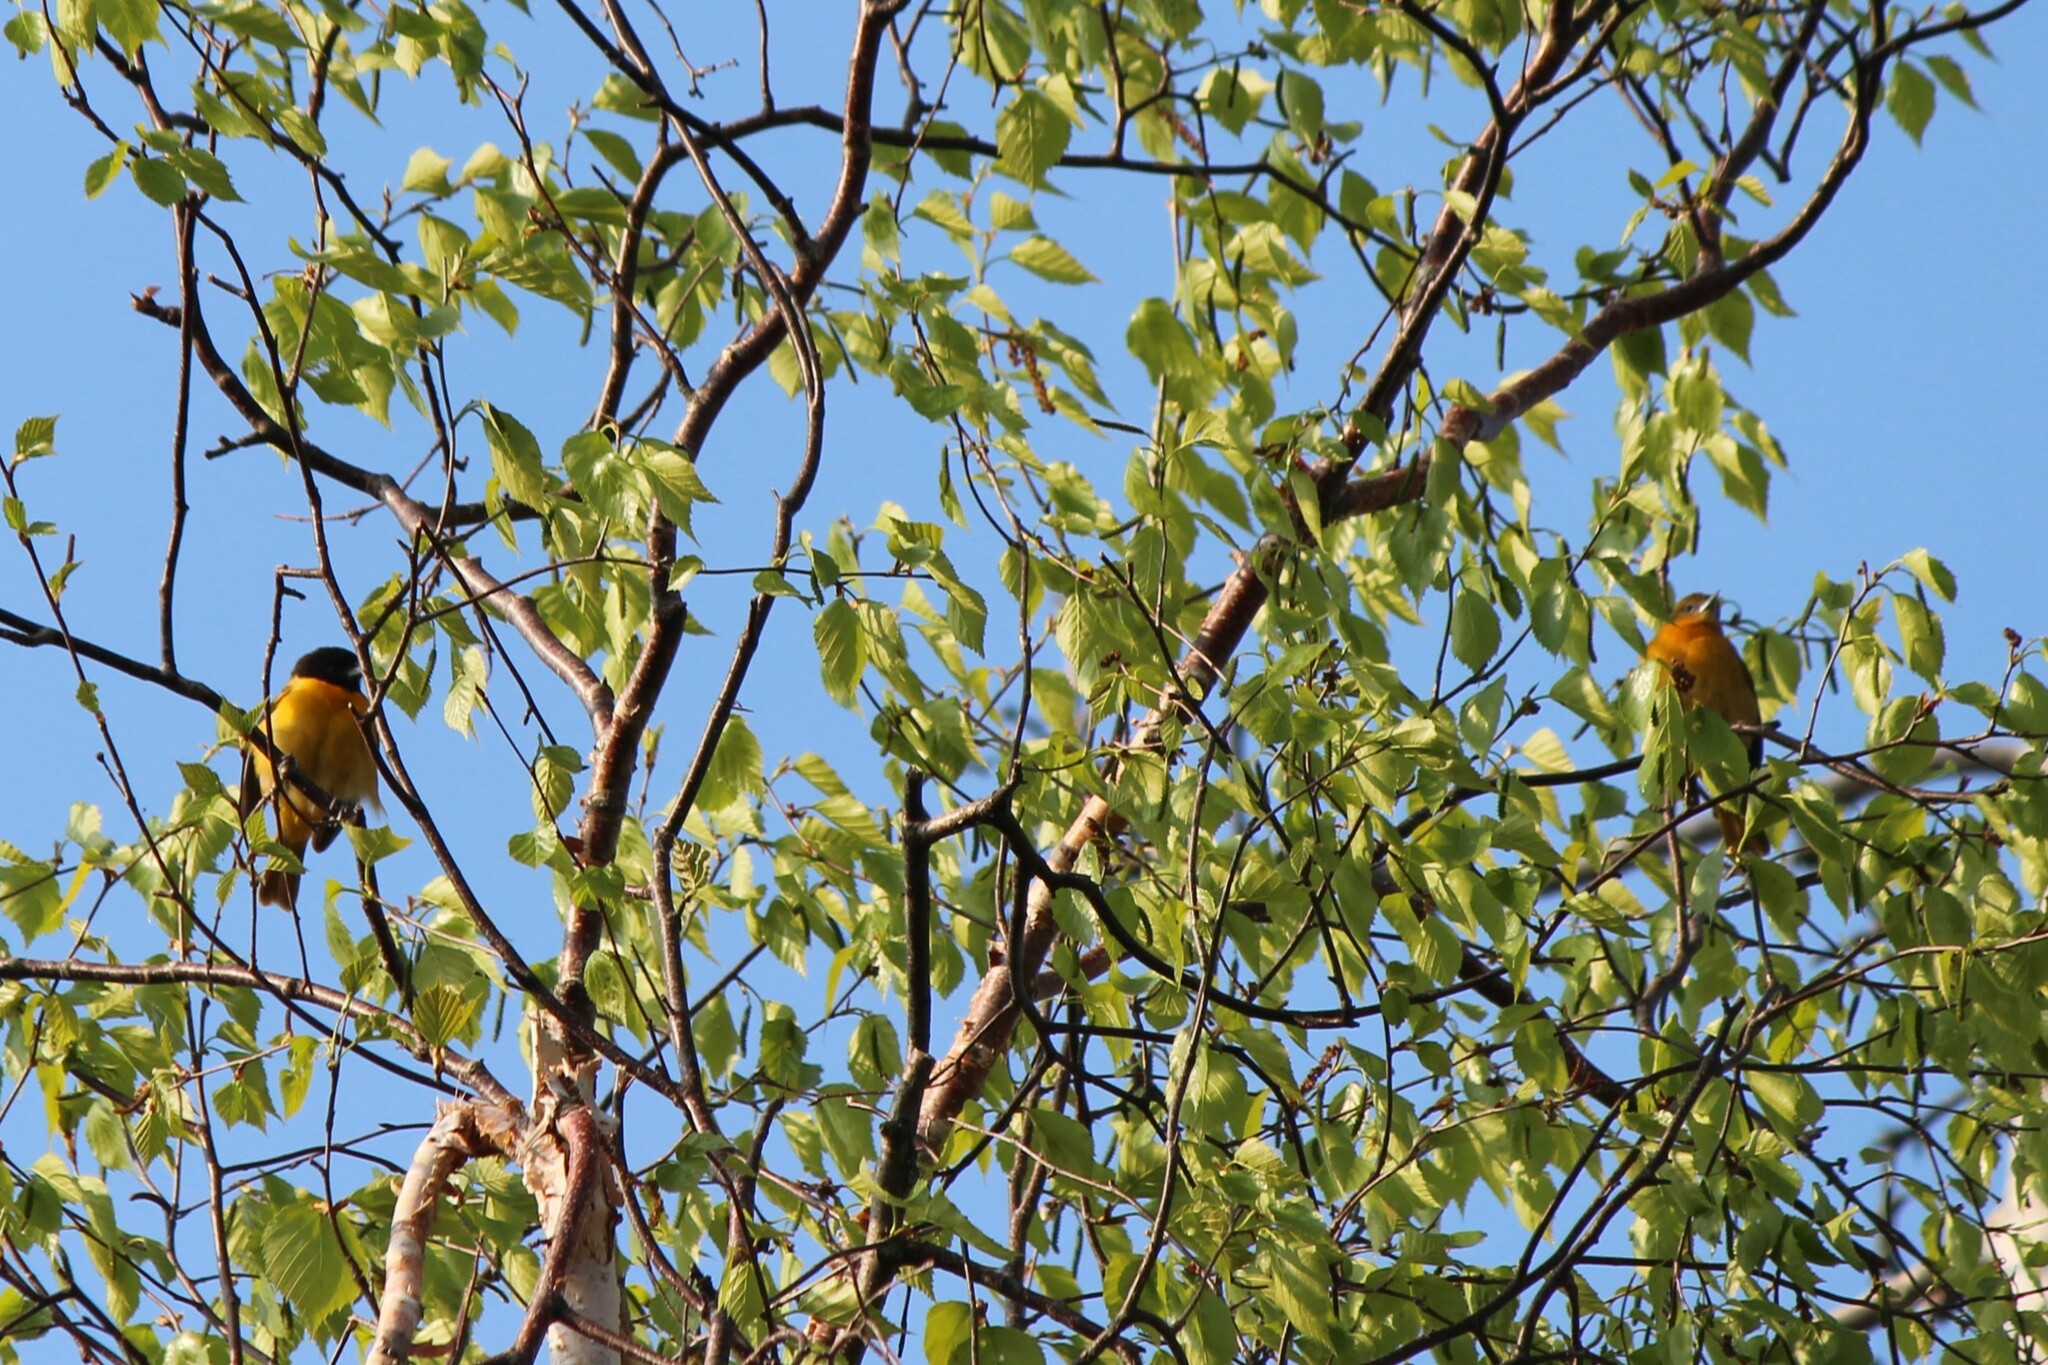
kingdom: Animalia
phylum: Chordata
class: Aves
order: Passeriformes
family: Icteridae
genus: Icterus
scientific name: Icterus galbula
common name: Baltimore oriole
